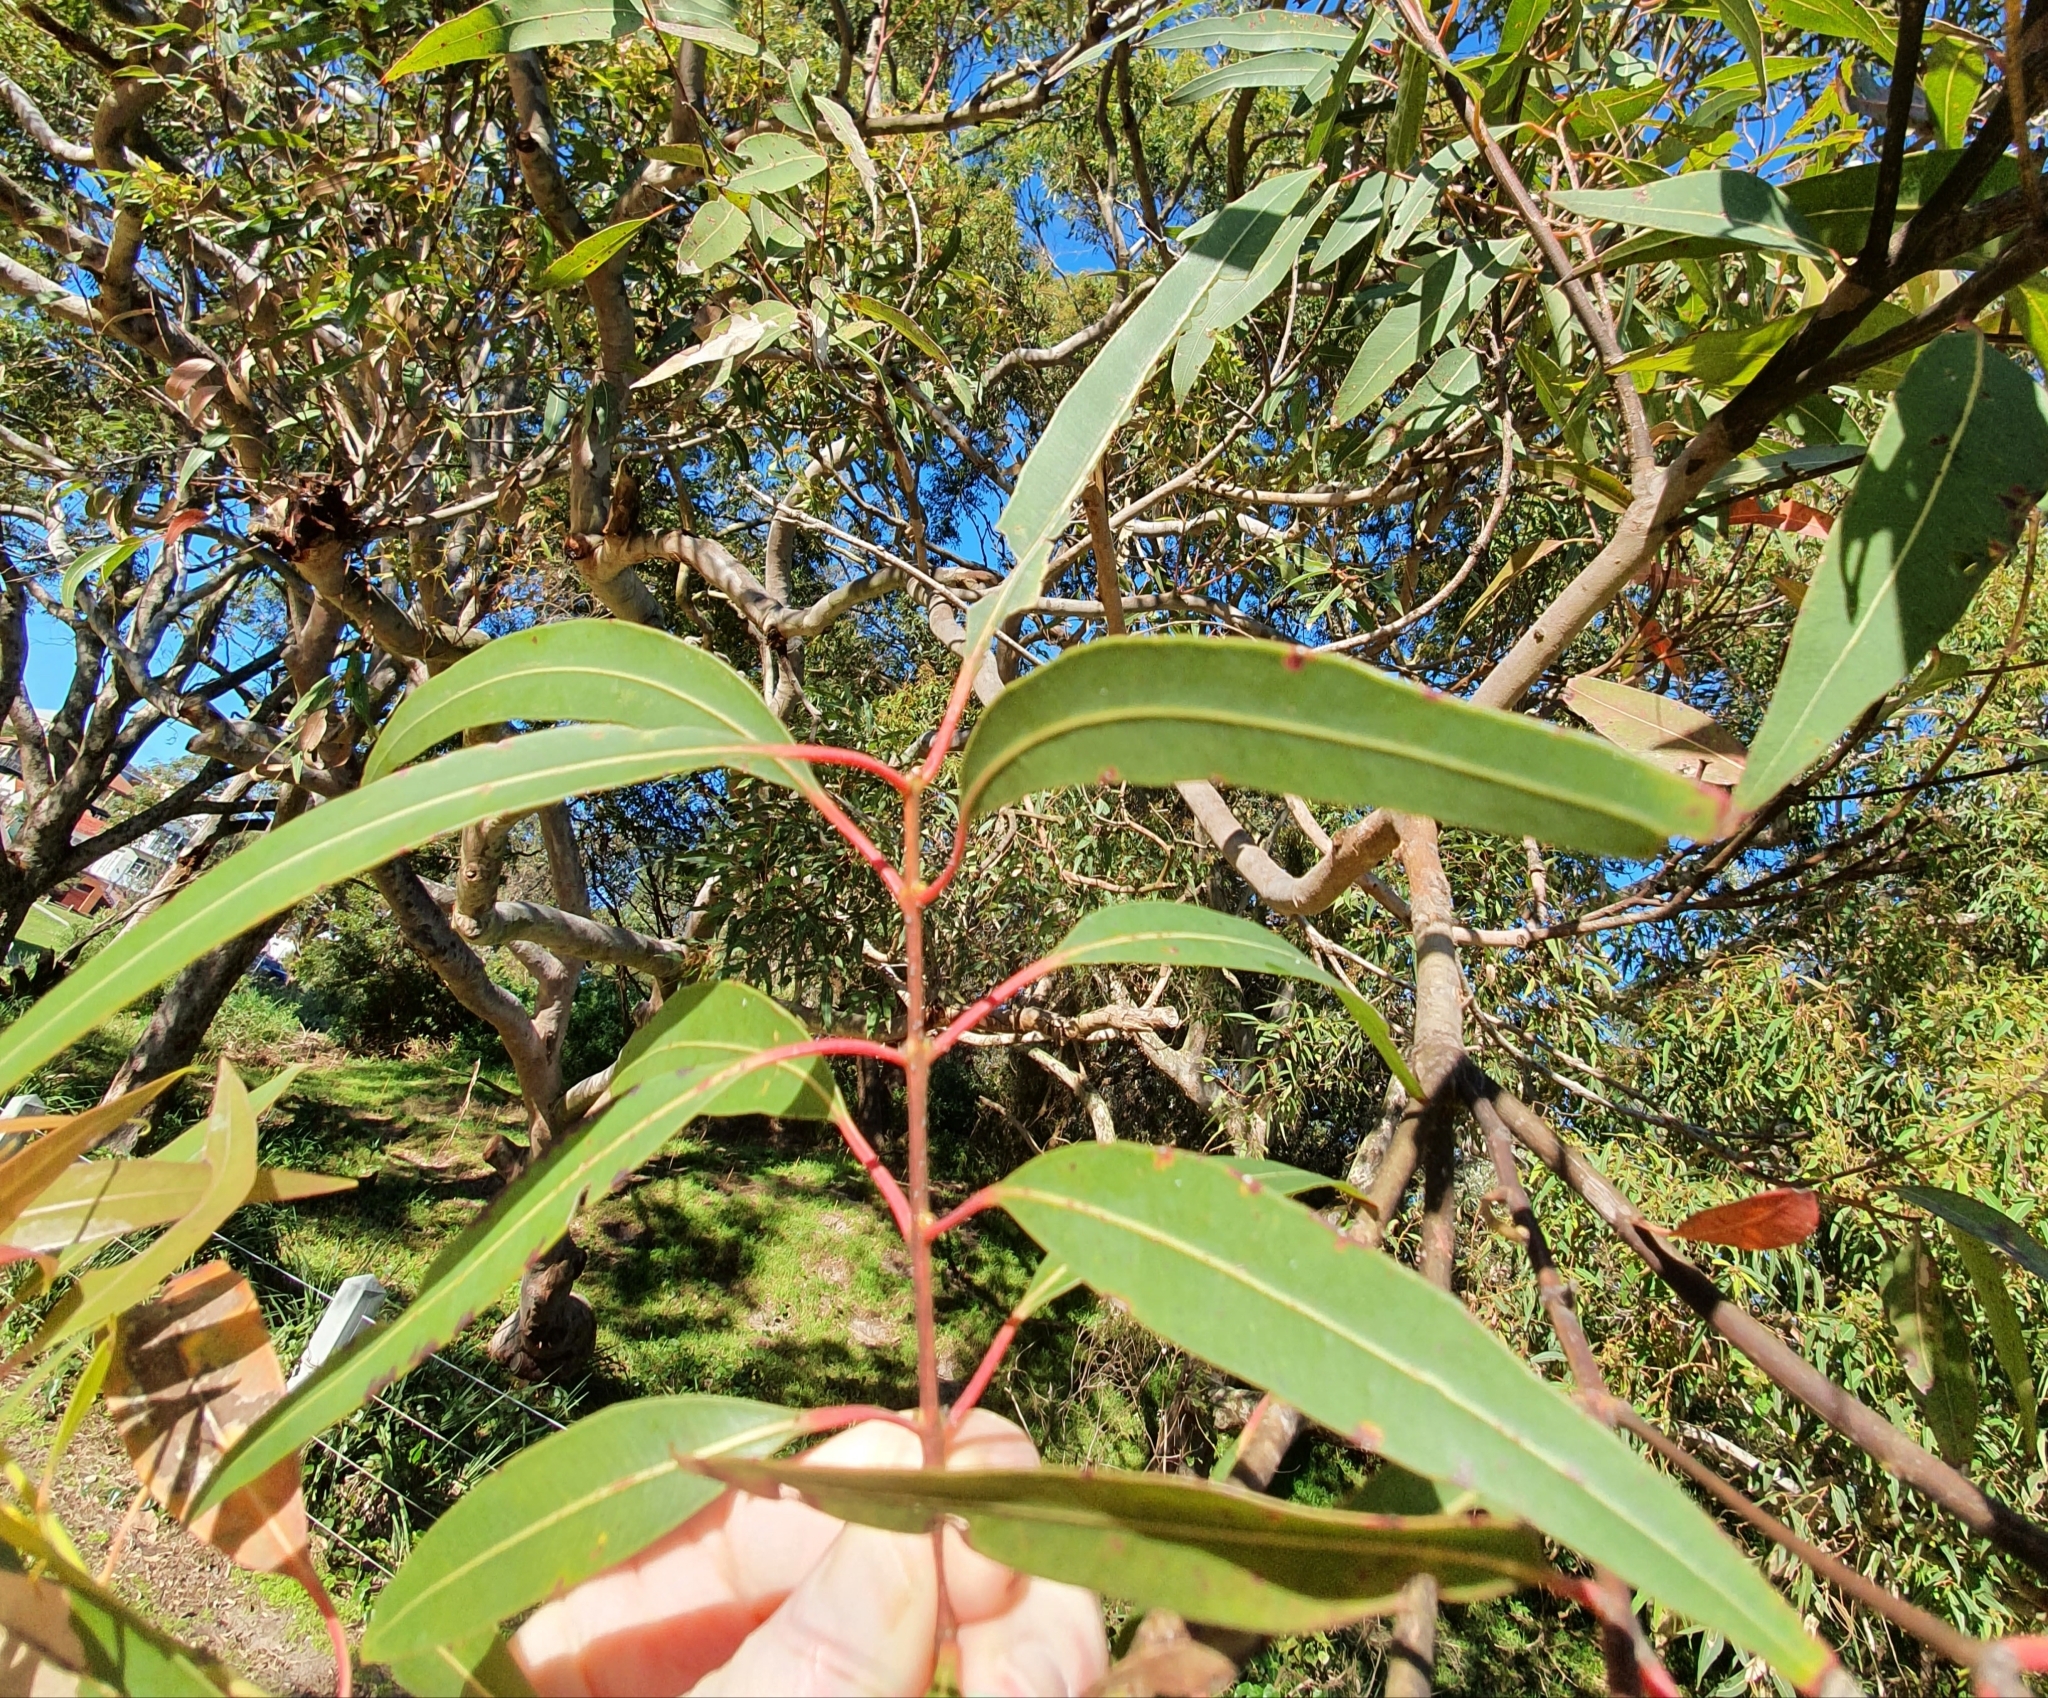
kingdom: Plantae
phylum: Tracheophyta
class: Magnoliopsida
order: Myrtales
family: Myrtaceae
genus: Angophora
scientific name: Angophora costata
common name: Gum myrtle
